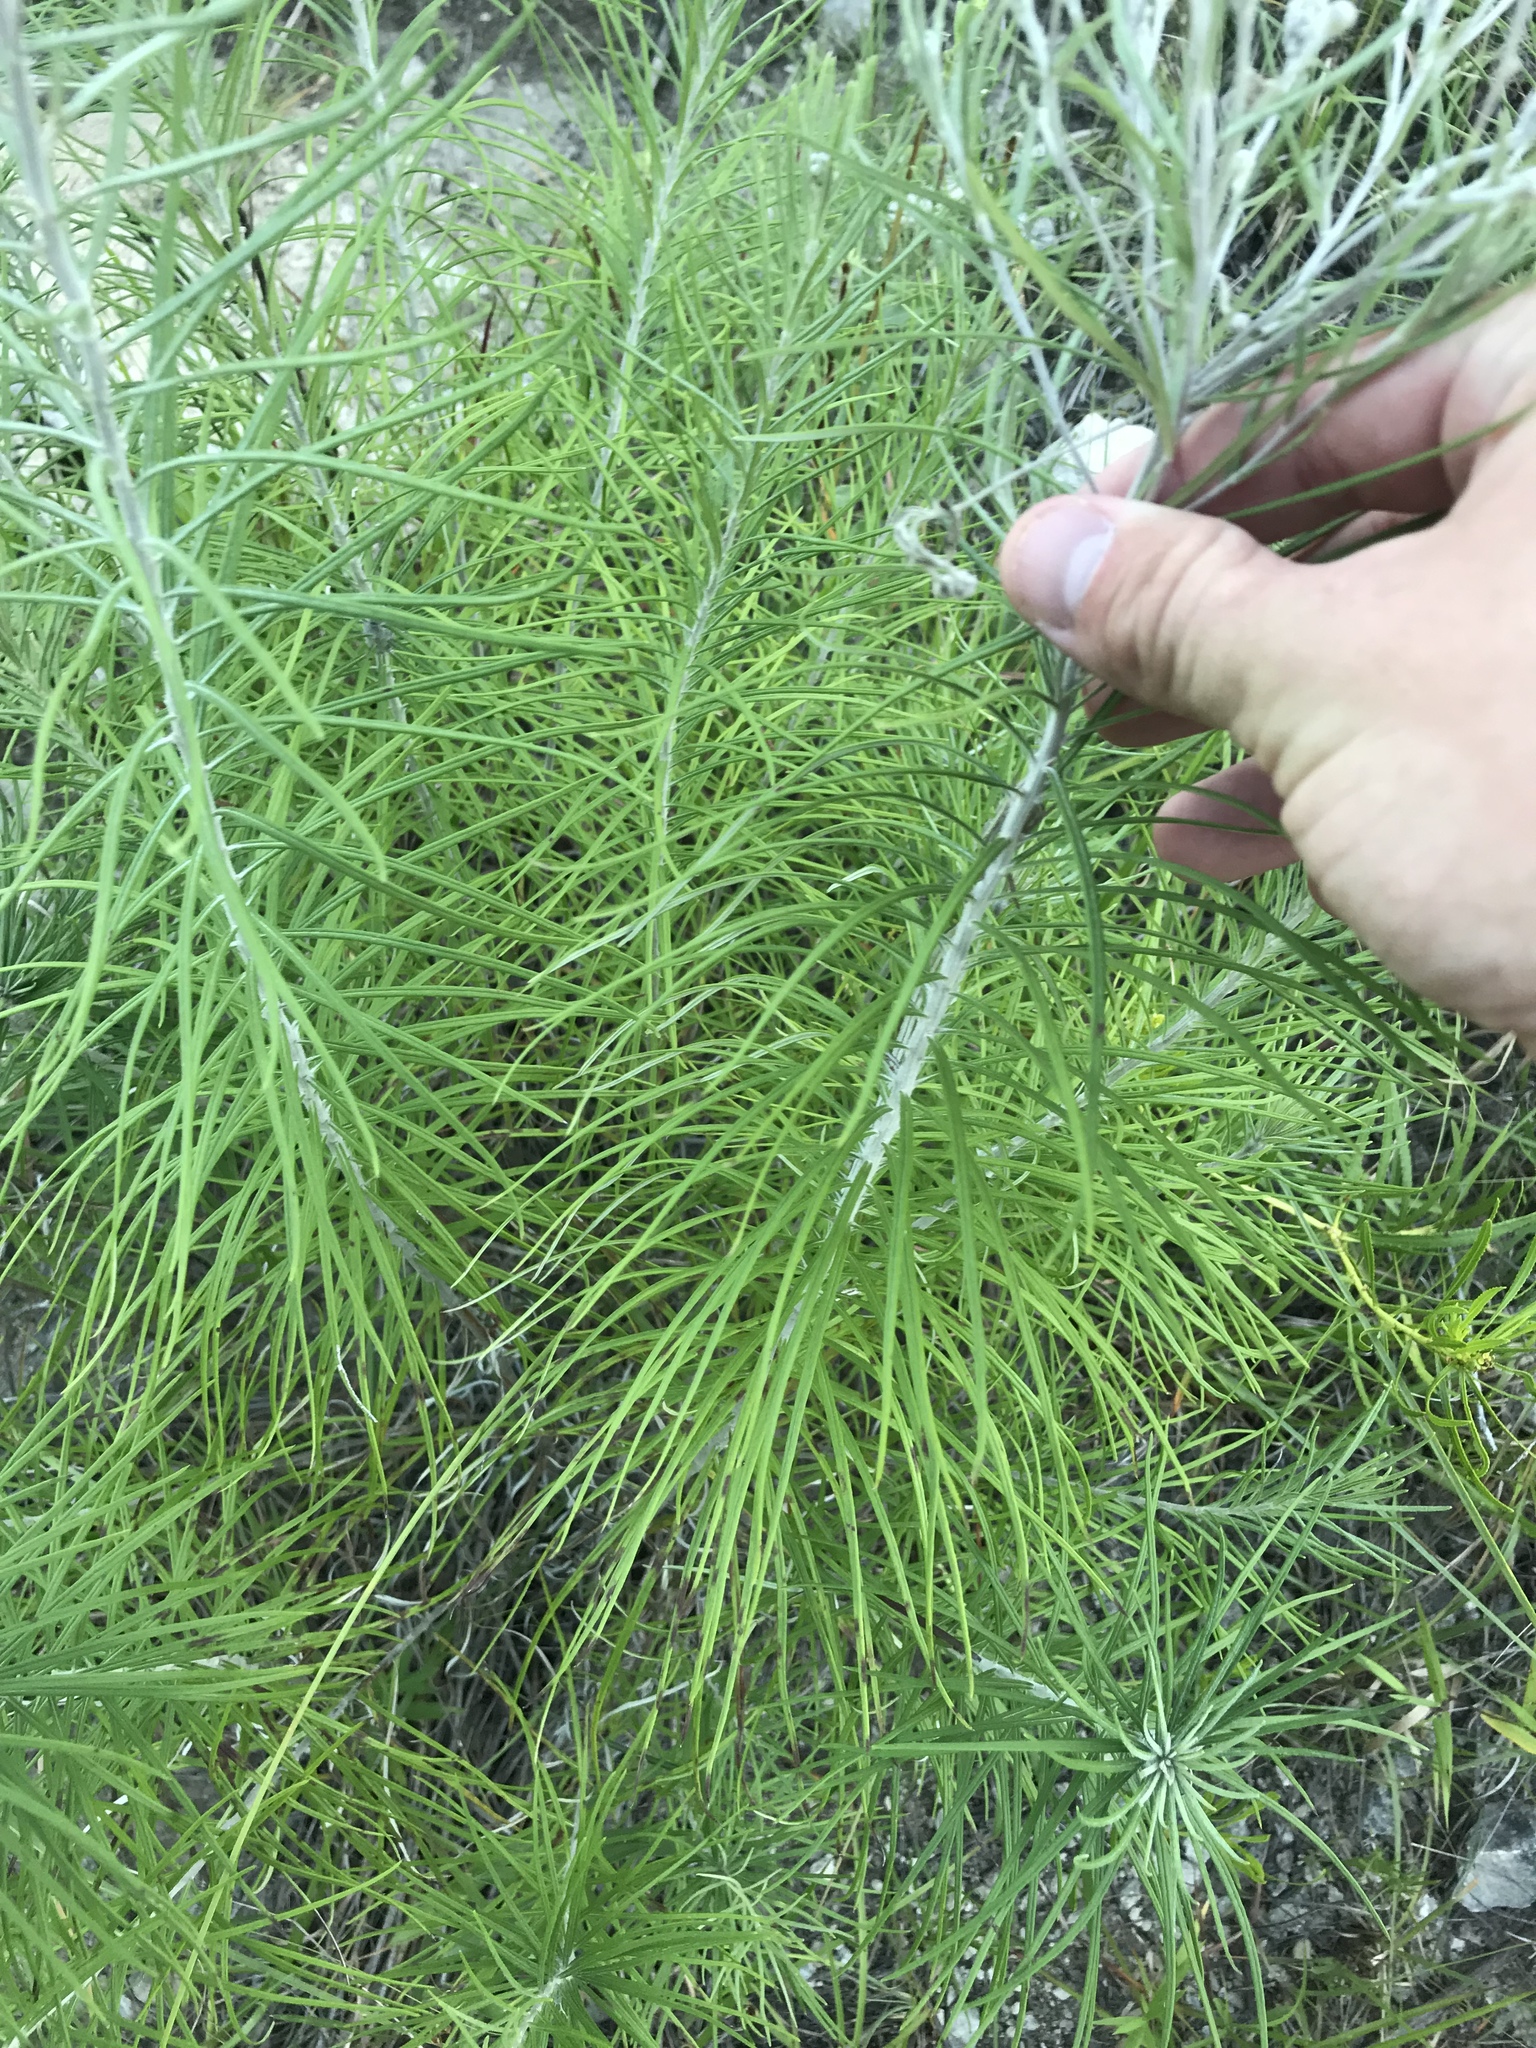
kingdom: Plantae
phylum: Tracheophyta
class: Magnoliopsida
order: Asterales
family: Asteraceae
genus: Vernonia
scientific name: Vernonia lindheimeri
